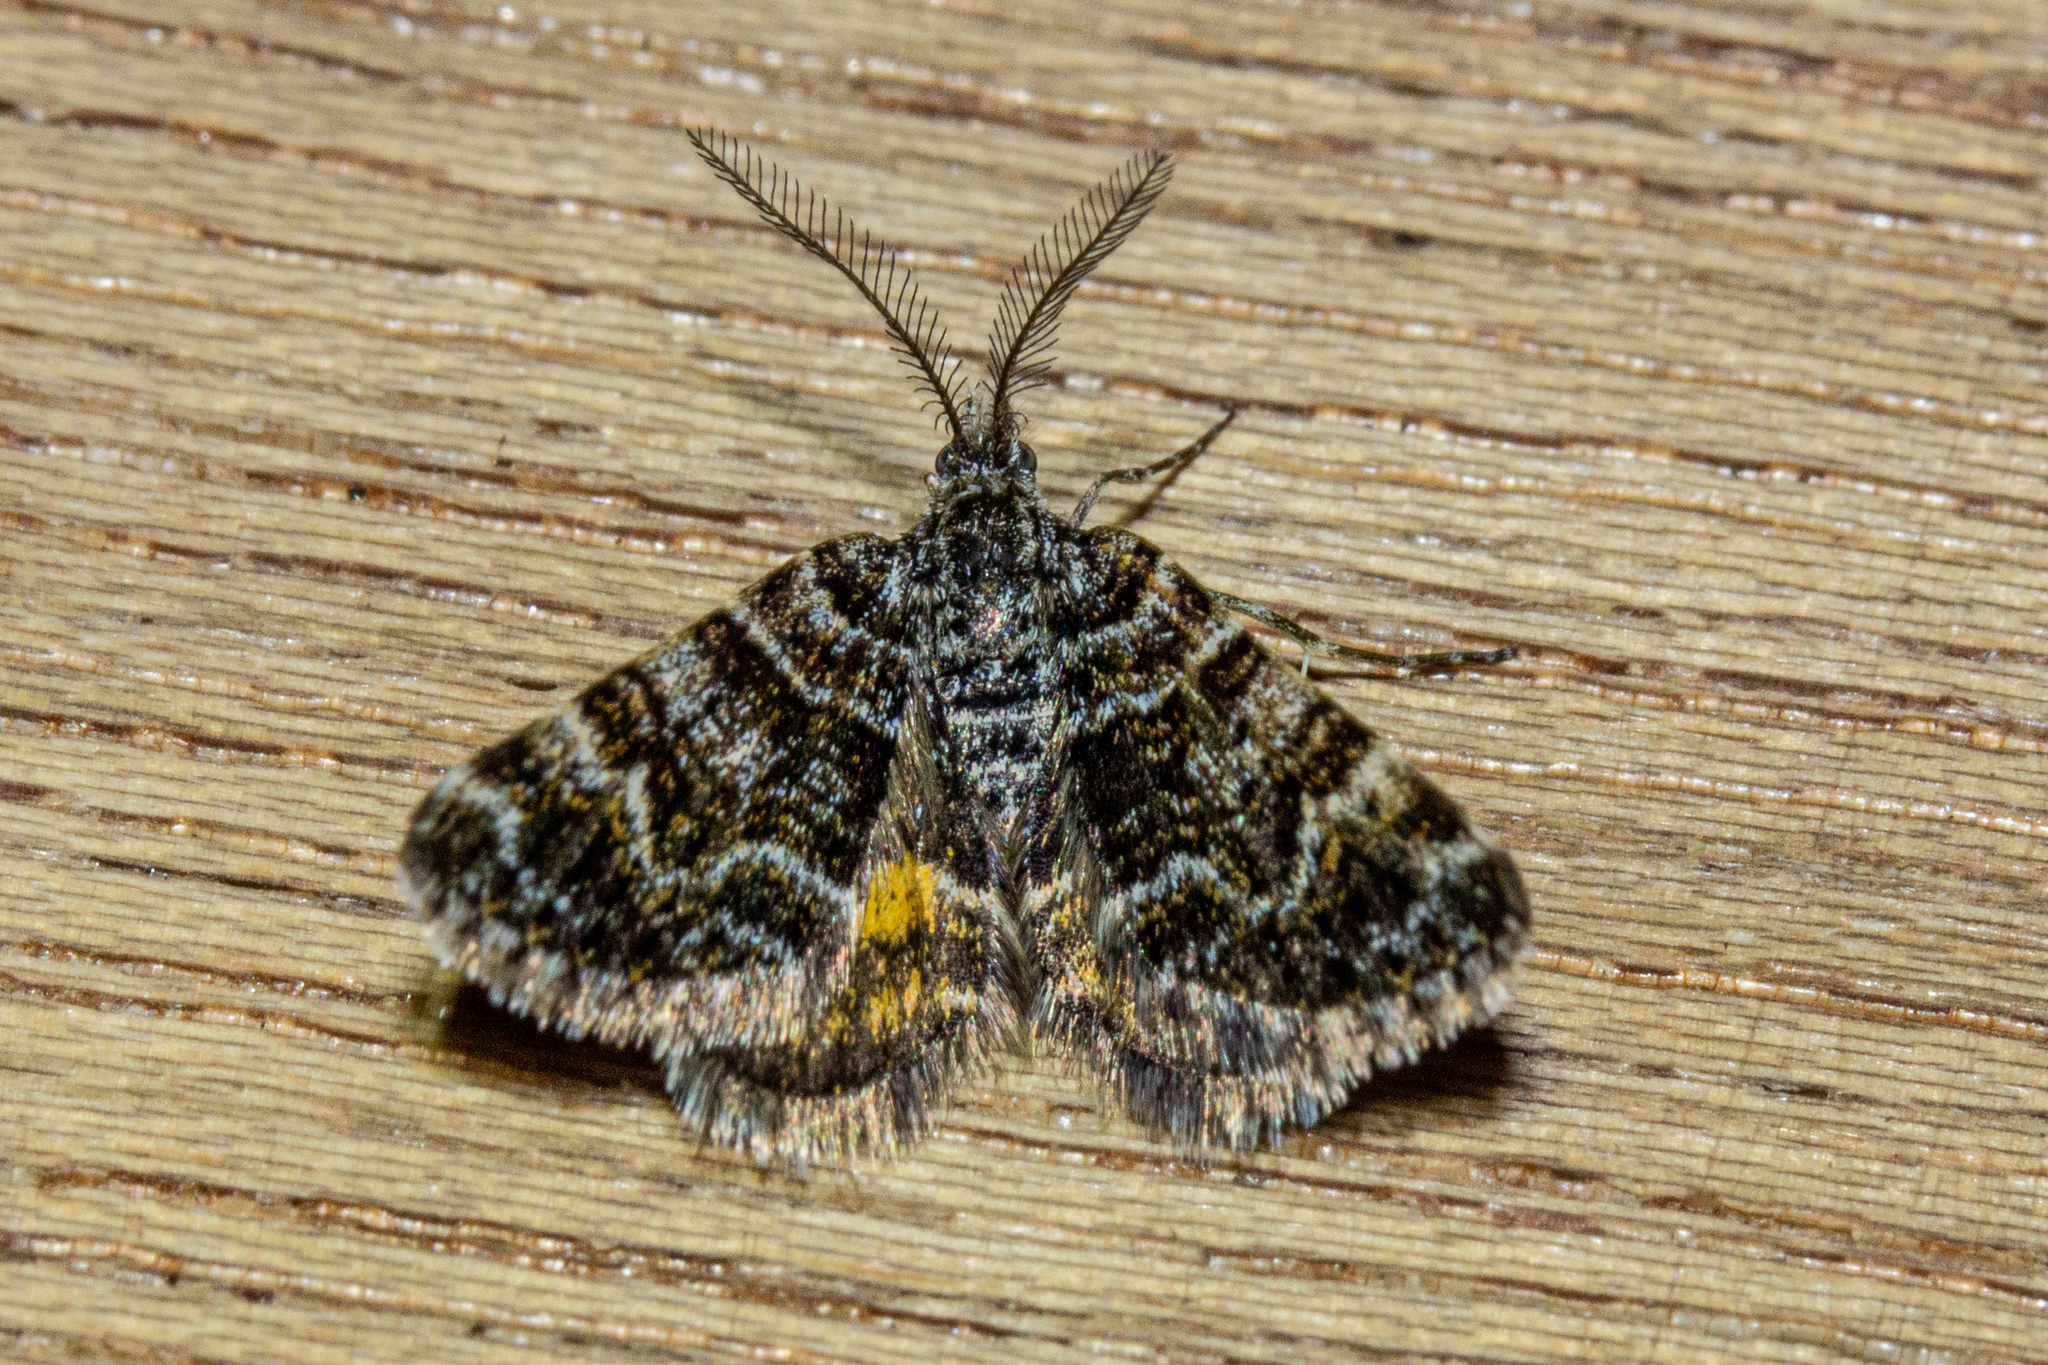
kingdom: Animalia
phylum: Arthropoda
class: Insecta
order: Lepidoptera
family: Geometridae
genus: Arctesthes
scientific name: Arctesthes catapyrrha
